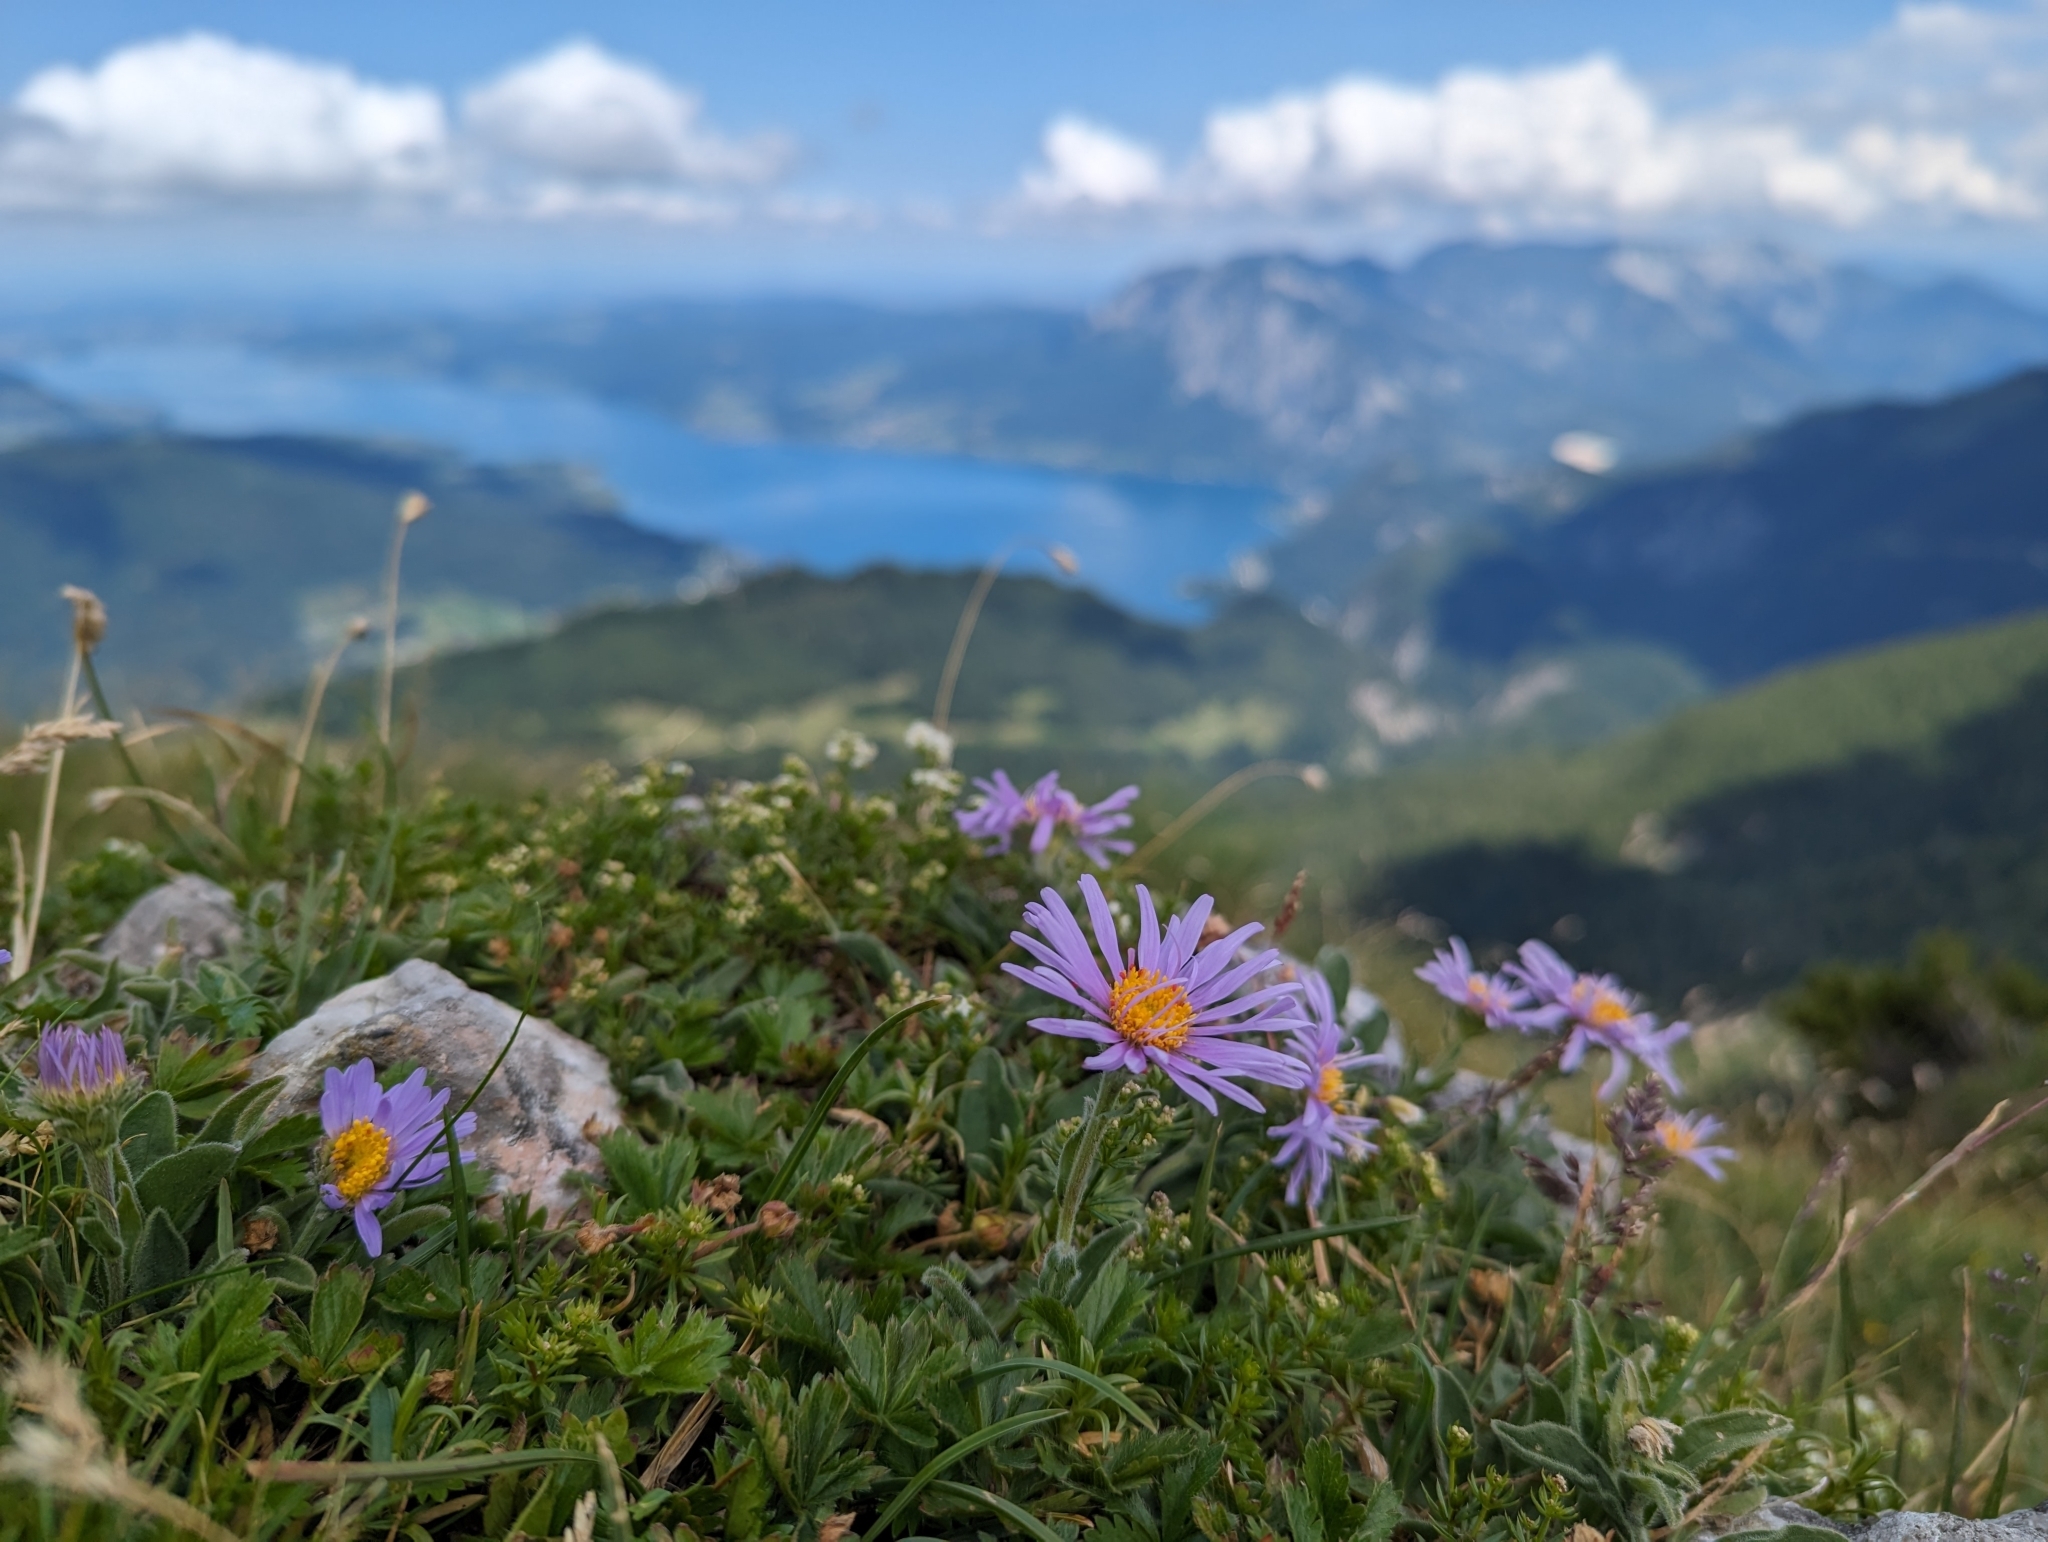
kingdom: Plantae
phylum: Tracheophyta
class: Magnoliopsida
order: Asterales
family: Asteraceae
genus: Aster
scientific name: Aster alpinus
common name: Alpine aster
